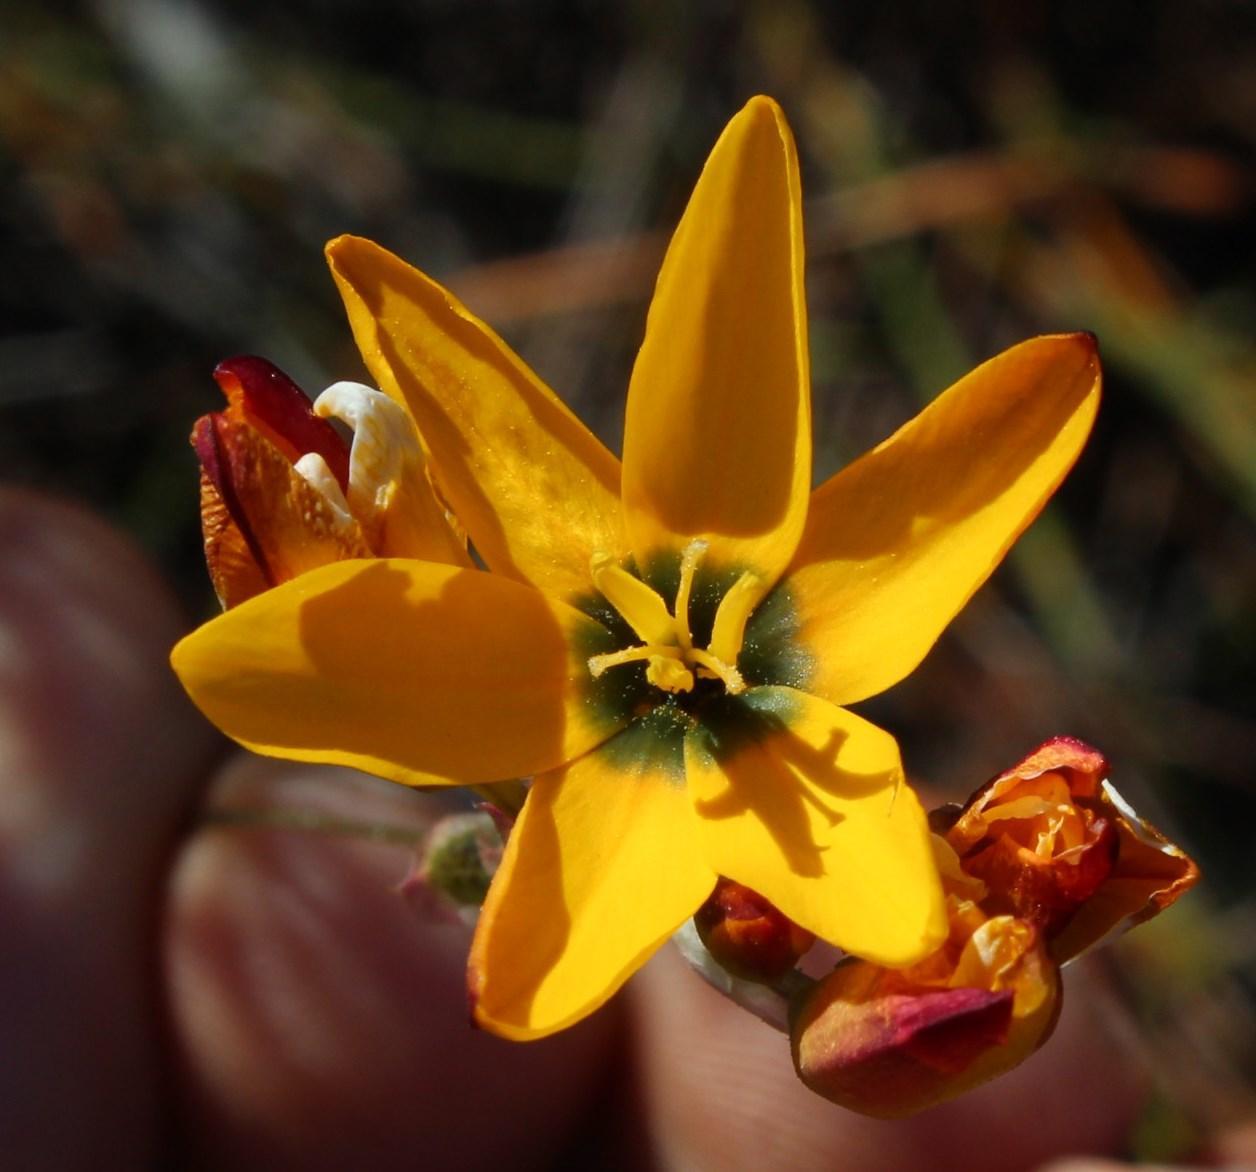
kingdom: Plantae
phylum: Tracheophyta
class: Liliopsida
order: Asparagales
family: Iridaceae
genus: Ixia
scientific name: Ixia dubia
